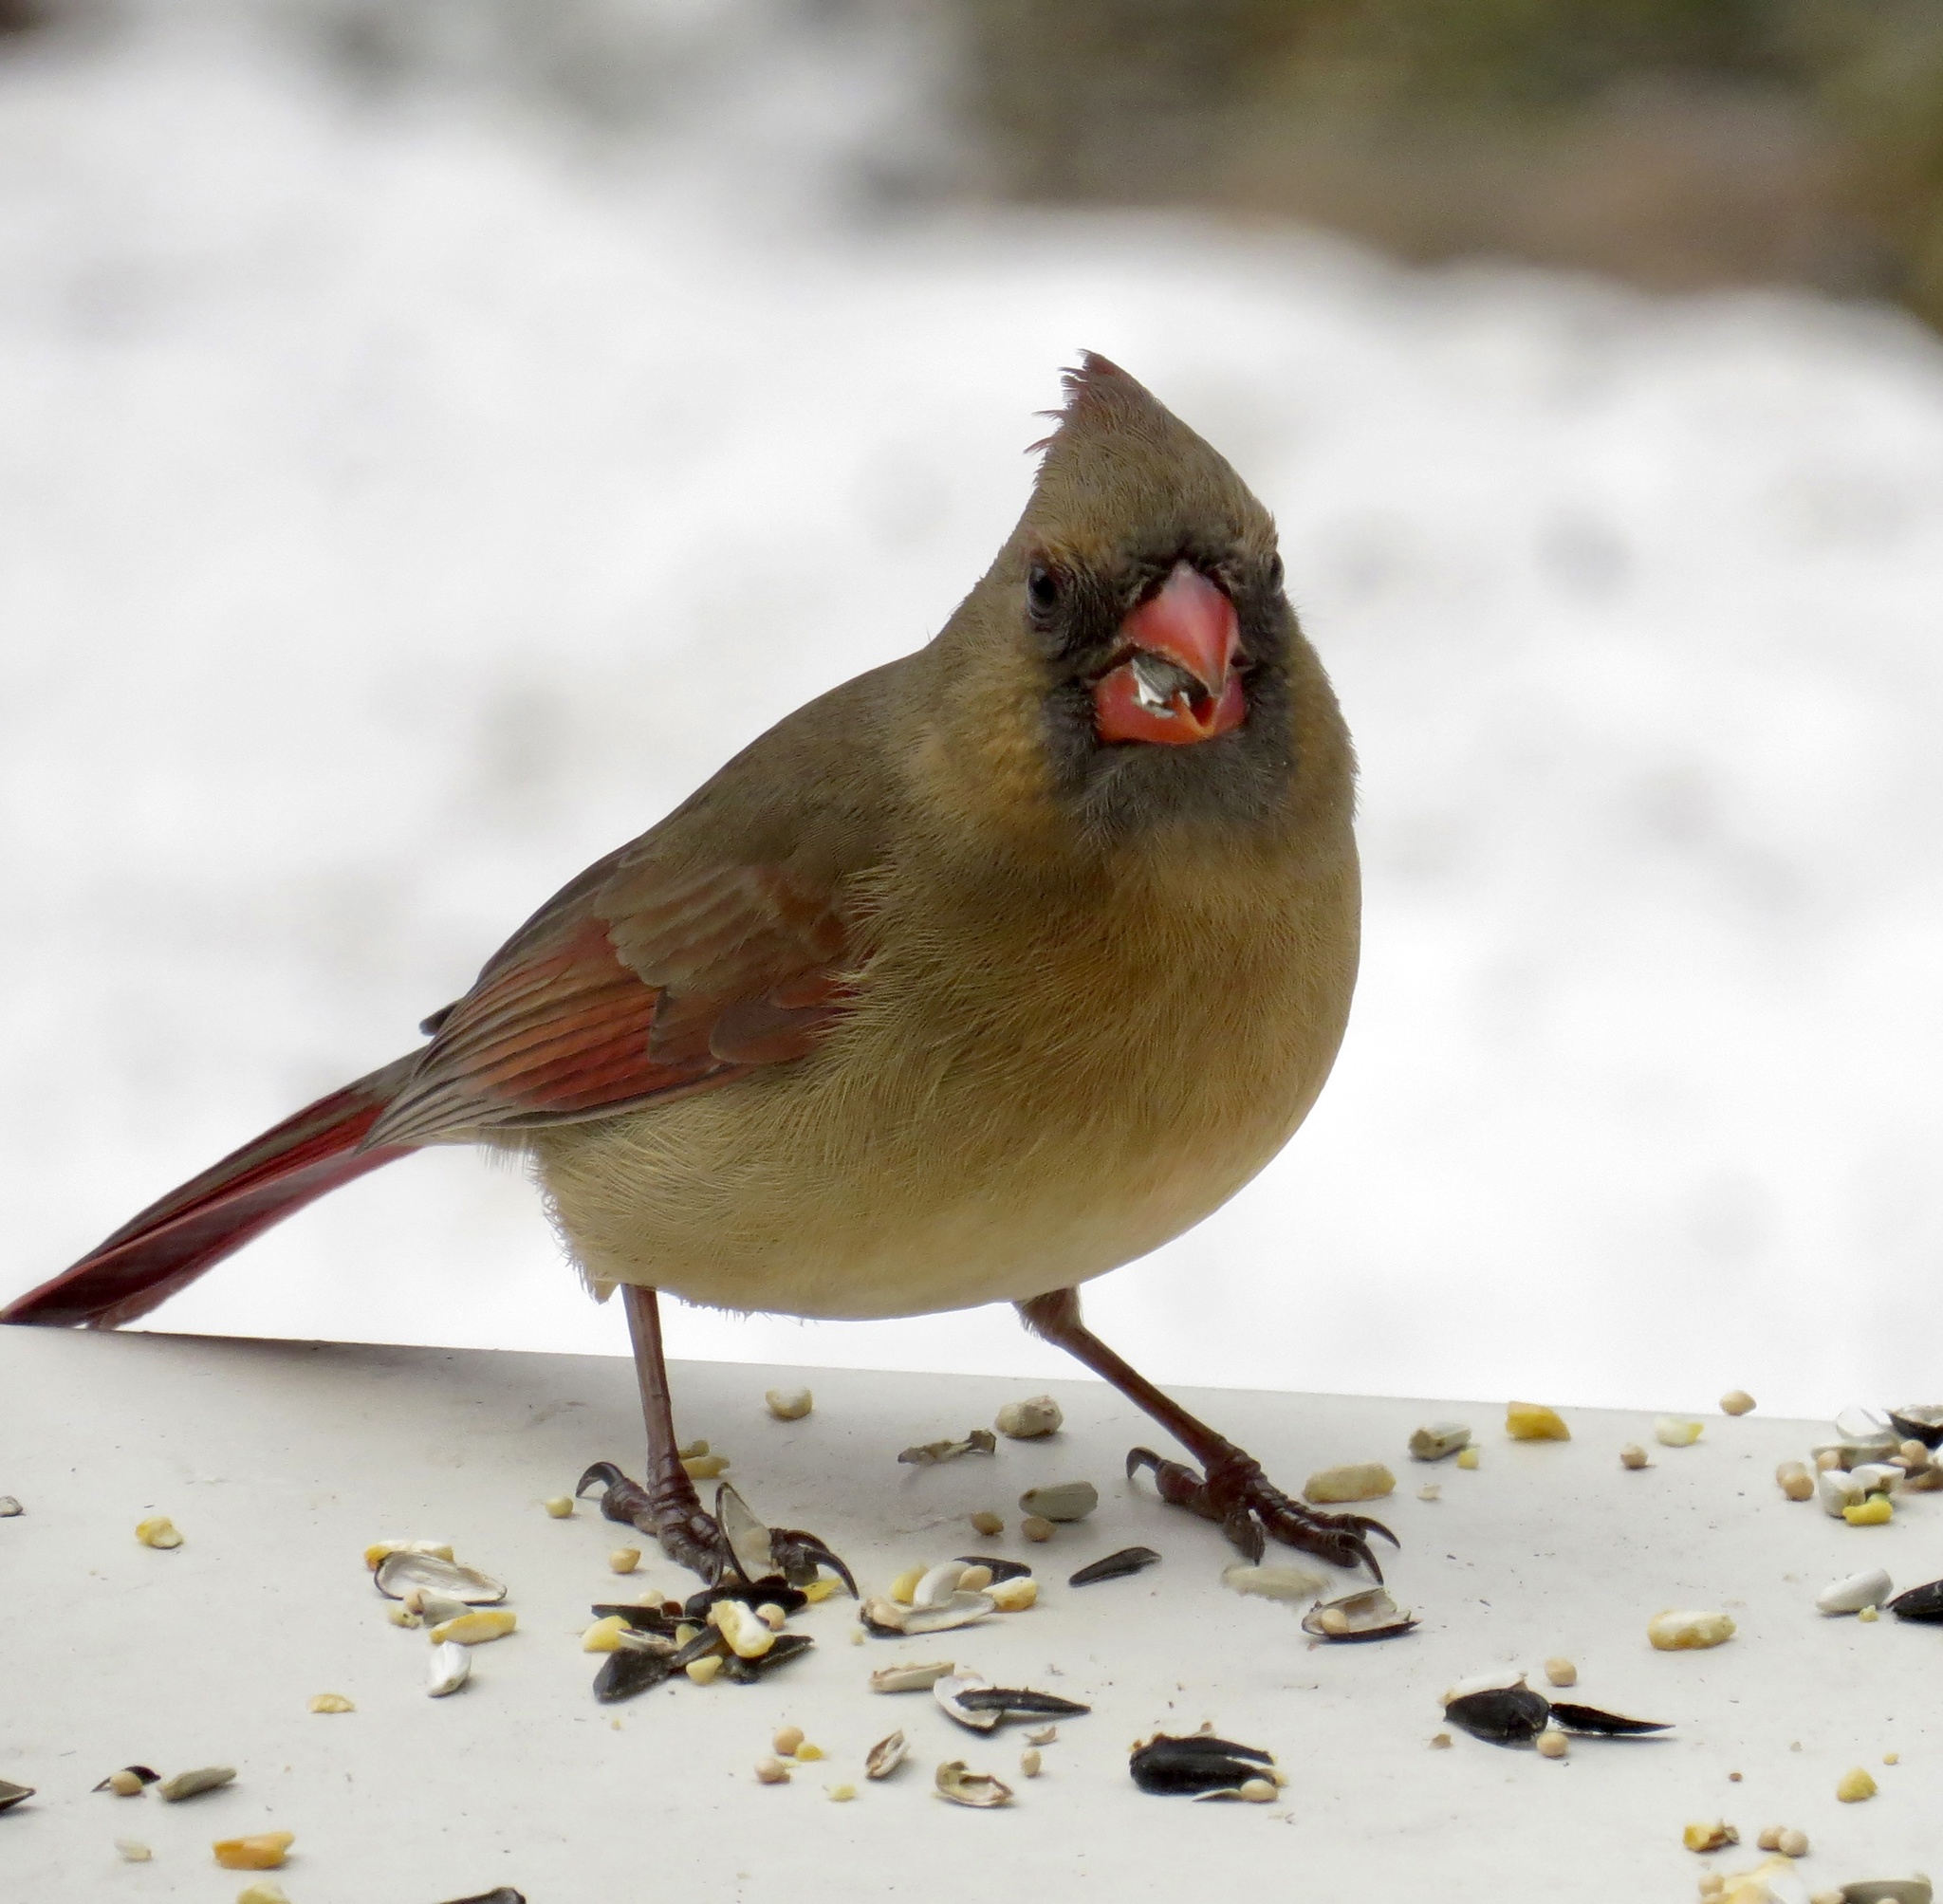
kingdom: Animalia
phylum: Chordata
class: Aves
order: Passeriformes
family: Cardinalidae
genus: Cardinalis
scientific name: Cardinalis cardinalis
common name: Northern cardinal
